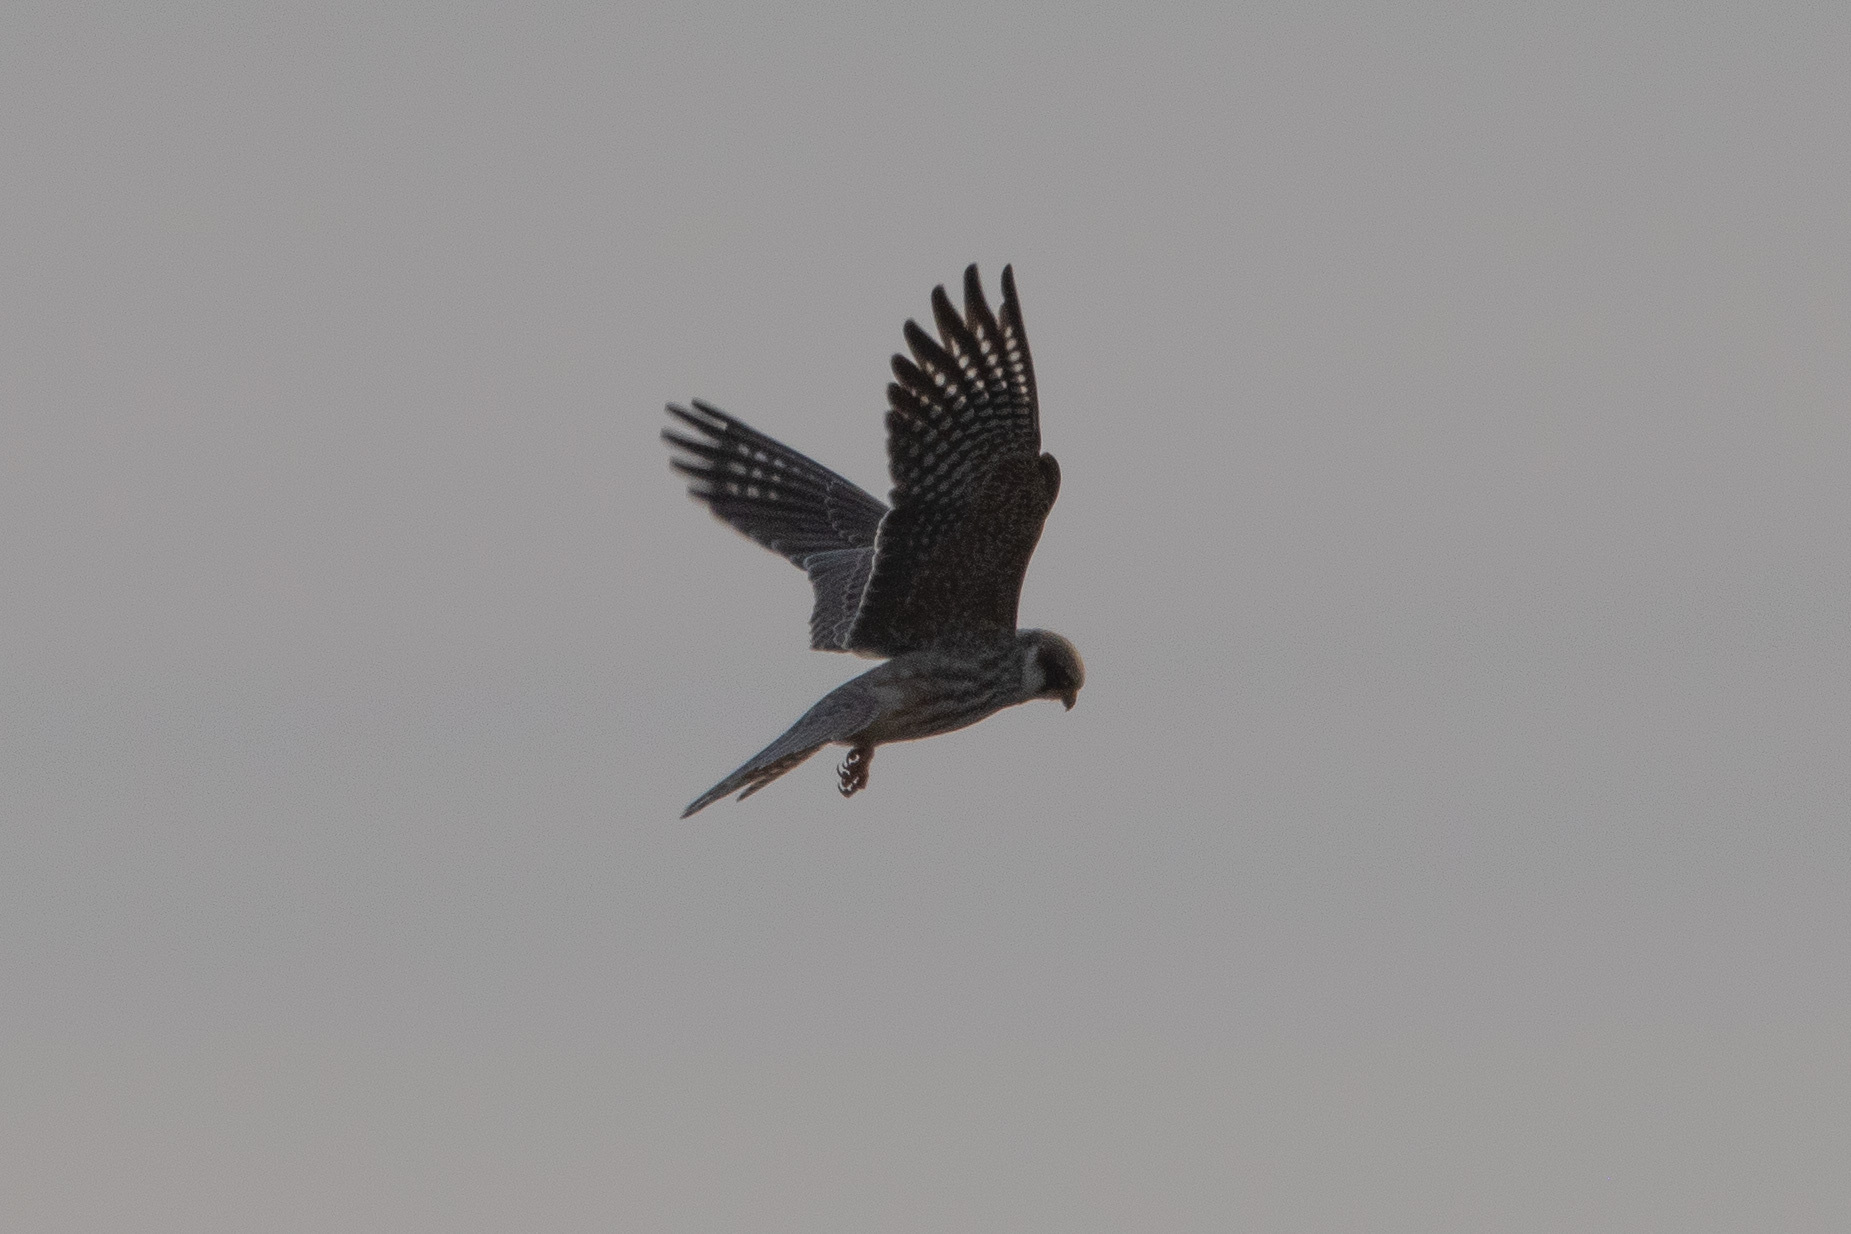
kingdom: Animalia
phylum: Chordata
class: Aves
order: Falconiformes
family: Falconidae
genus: Falco
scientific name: Falco vespertinus
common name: Red-footed falcon
